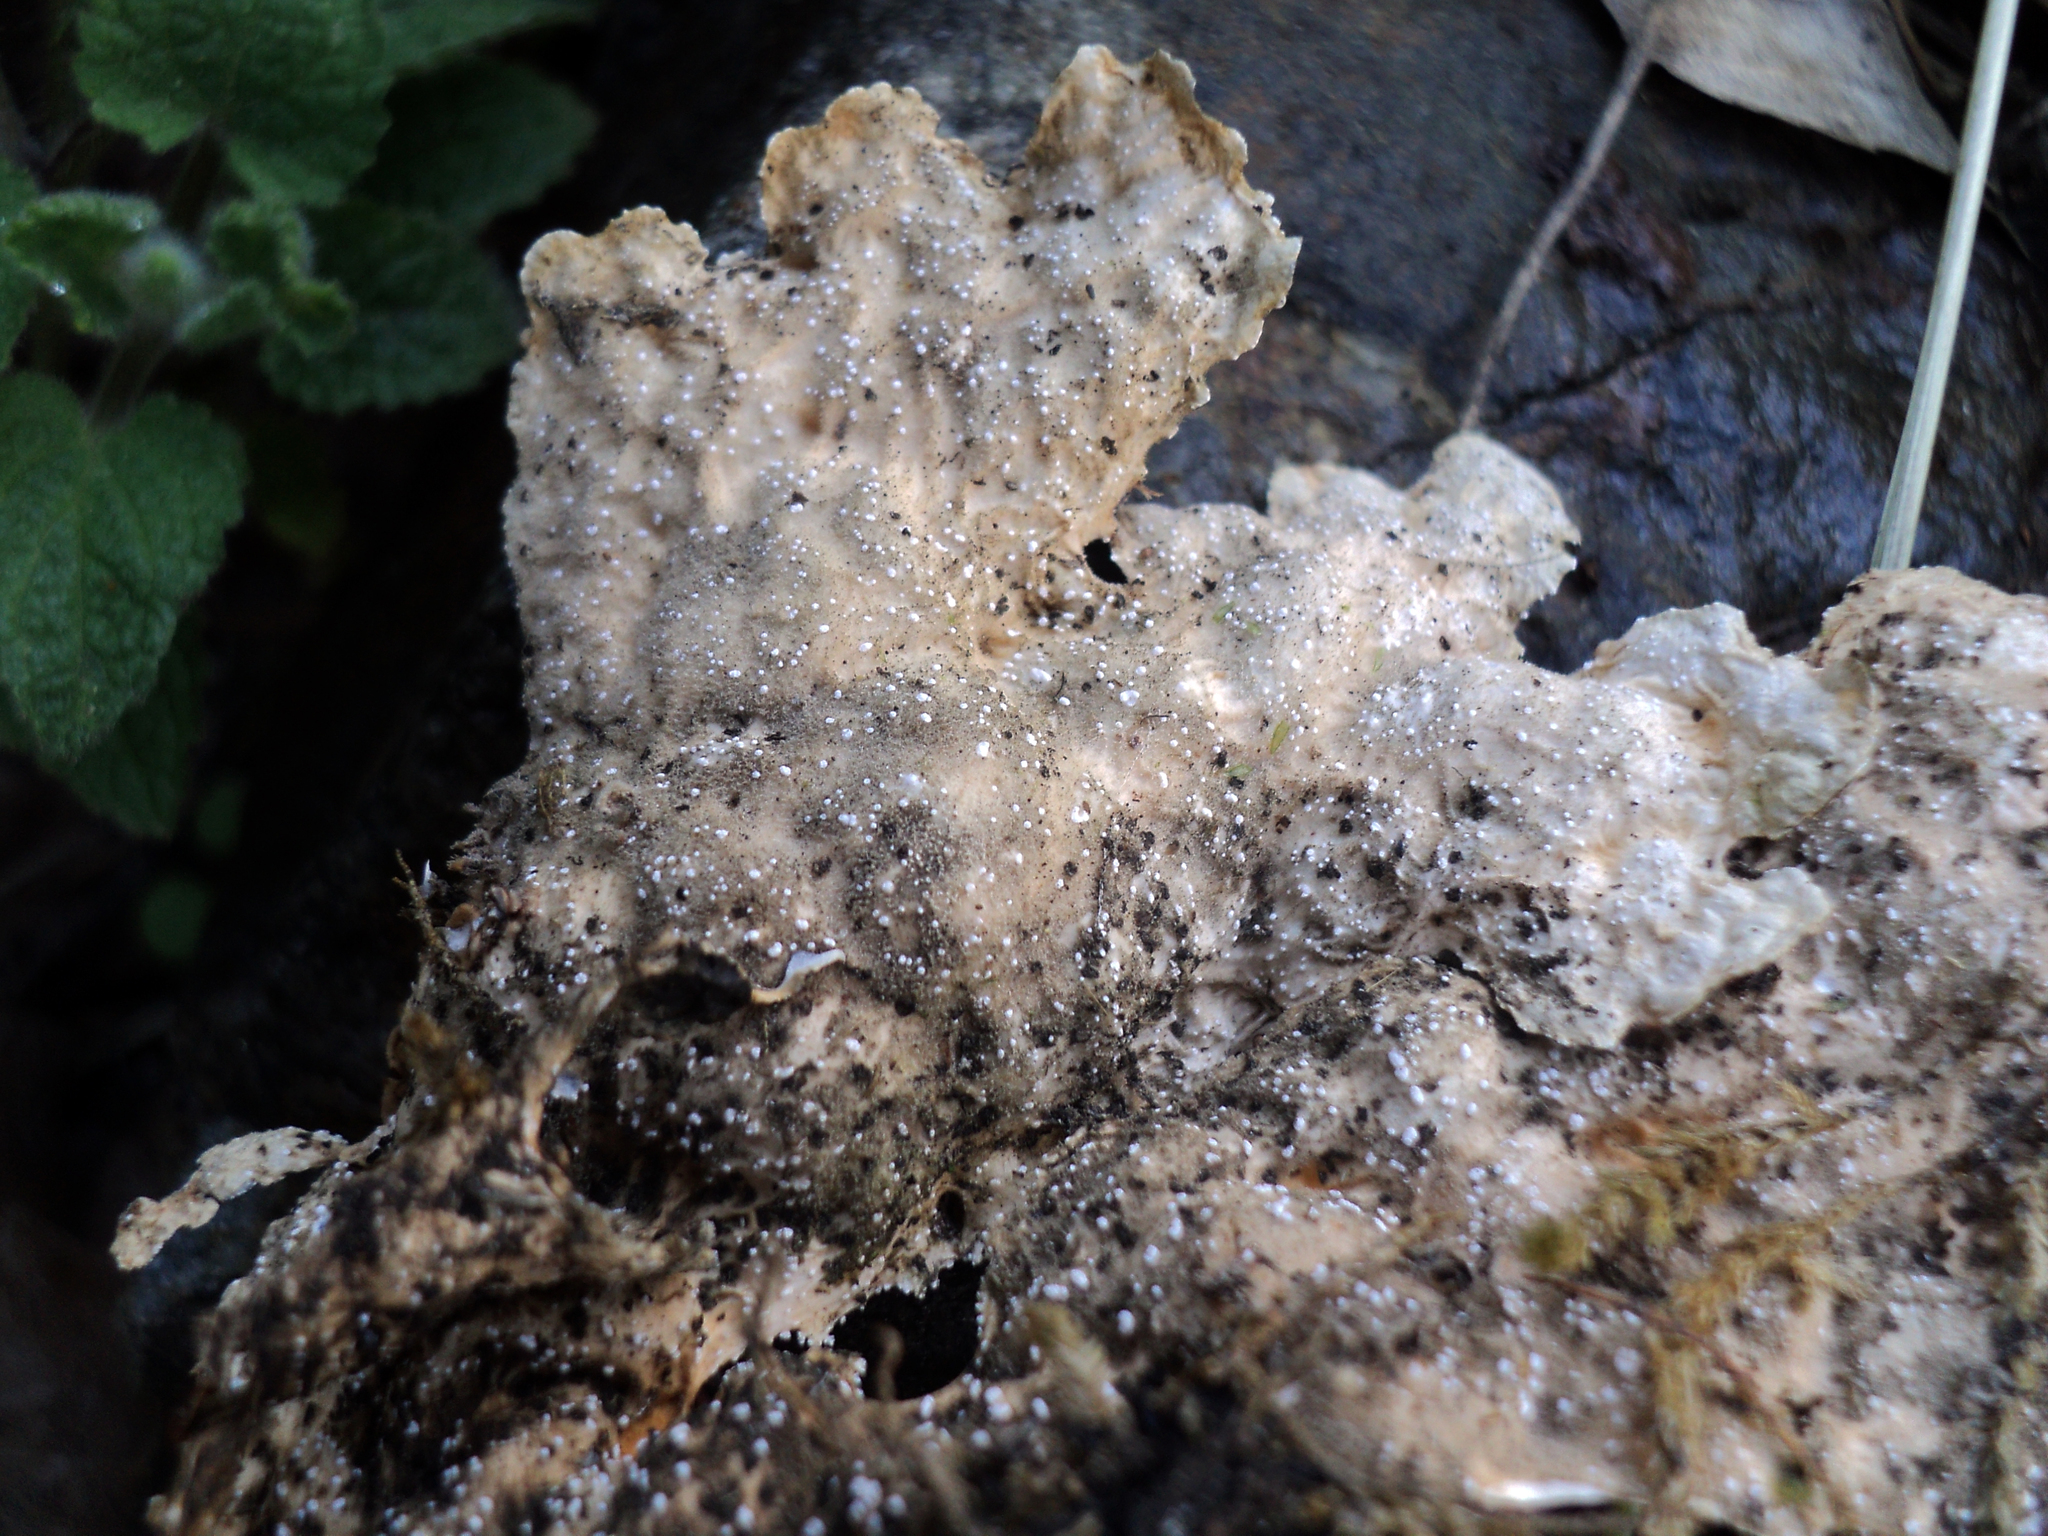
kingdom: Fungi
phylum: Ascomycota
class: Lecanoromycetes
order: Peltigerales
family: Lobariaceae
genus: Lobaria
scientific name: Lobaria anthraspis
